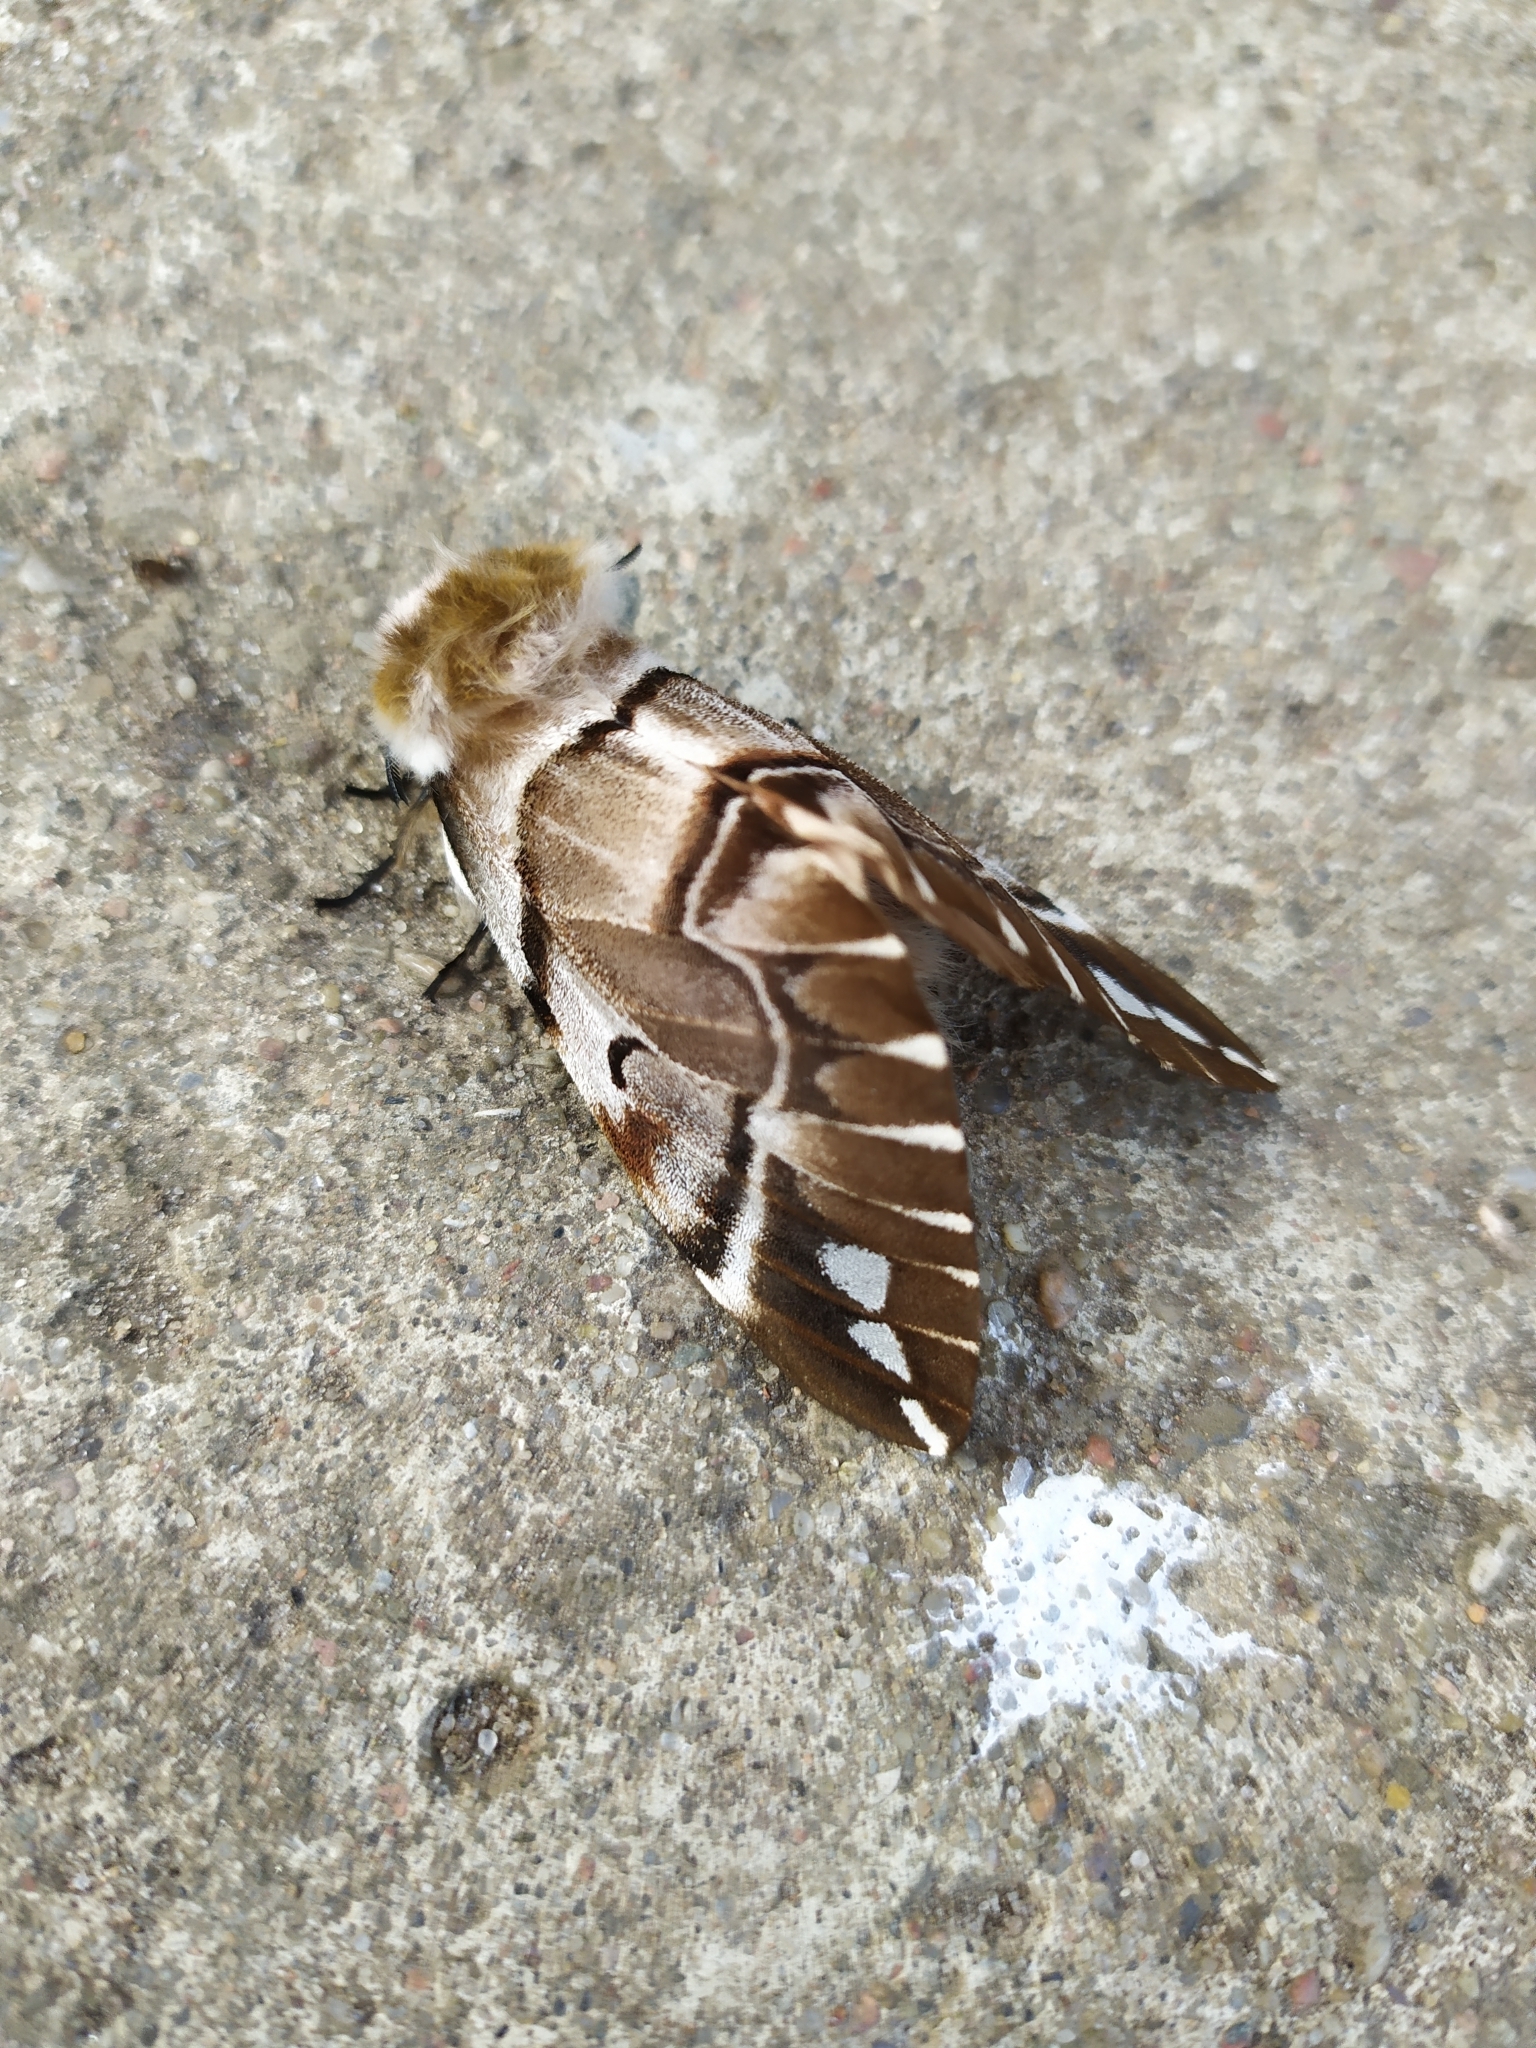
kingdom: Animalia
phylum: Arthropoda
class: Insecta
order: Lepidoptera
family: Endromidae
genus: Endromis
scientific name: Endromis versicolora
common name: Kentish glory
